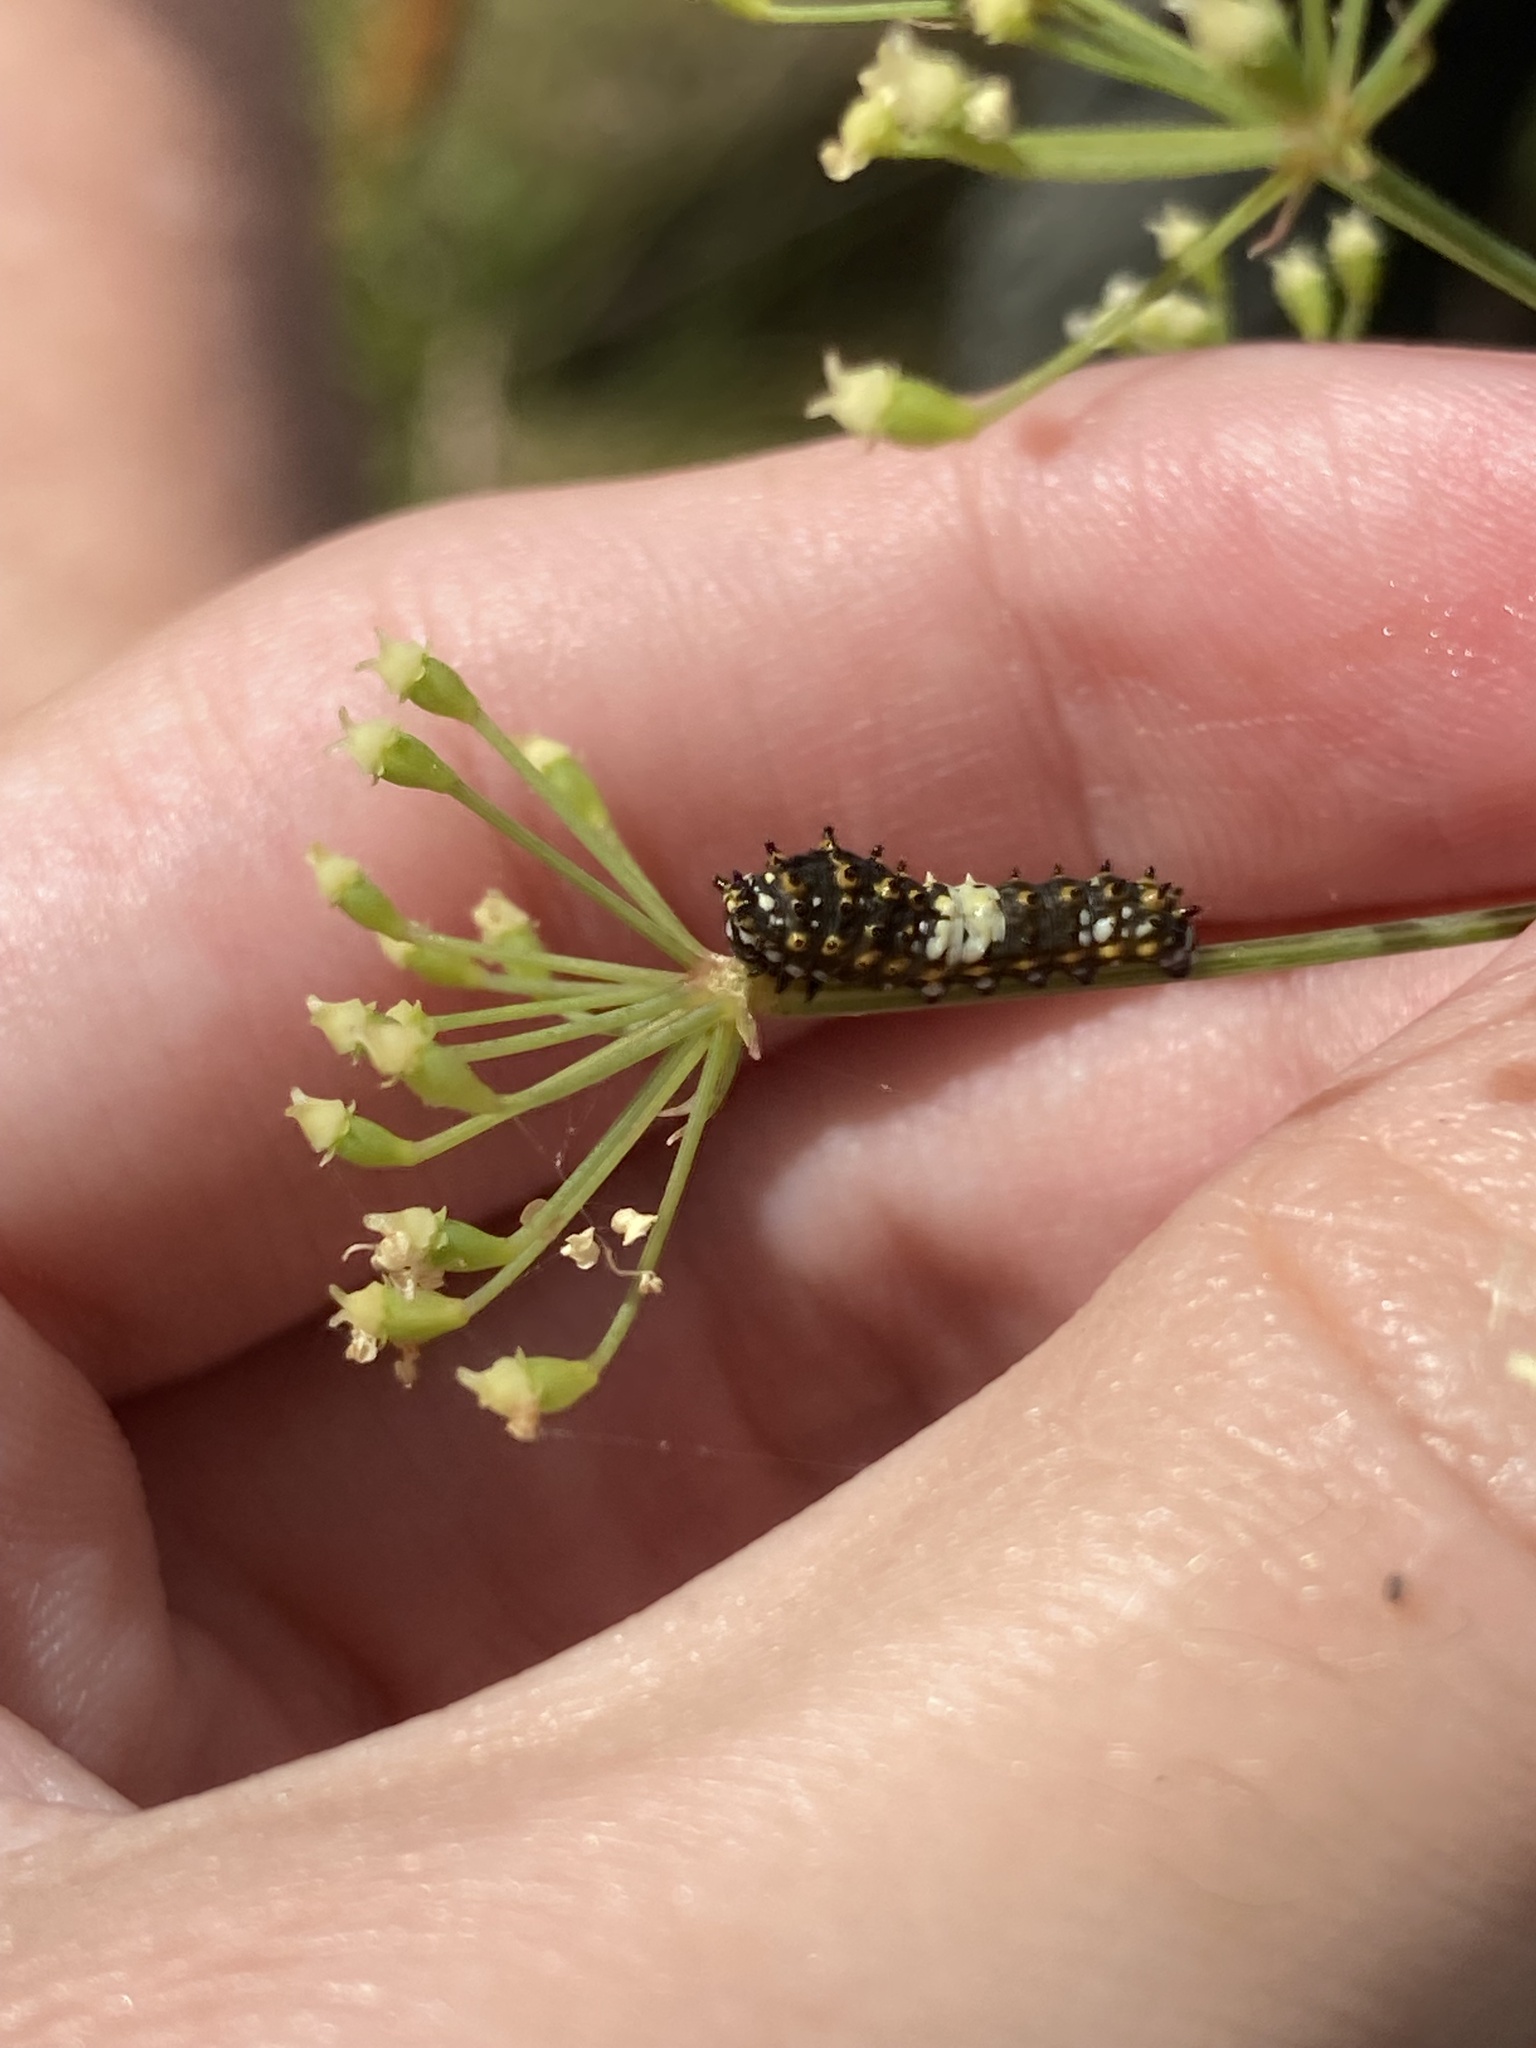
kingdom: Animalia
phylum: Arthropoda
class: Insecta
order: Lepidoptera
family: Papilionidae
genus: Papilio
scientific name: Papilio polyxenes
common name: Black swallowtail
